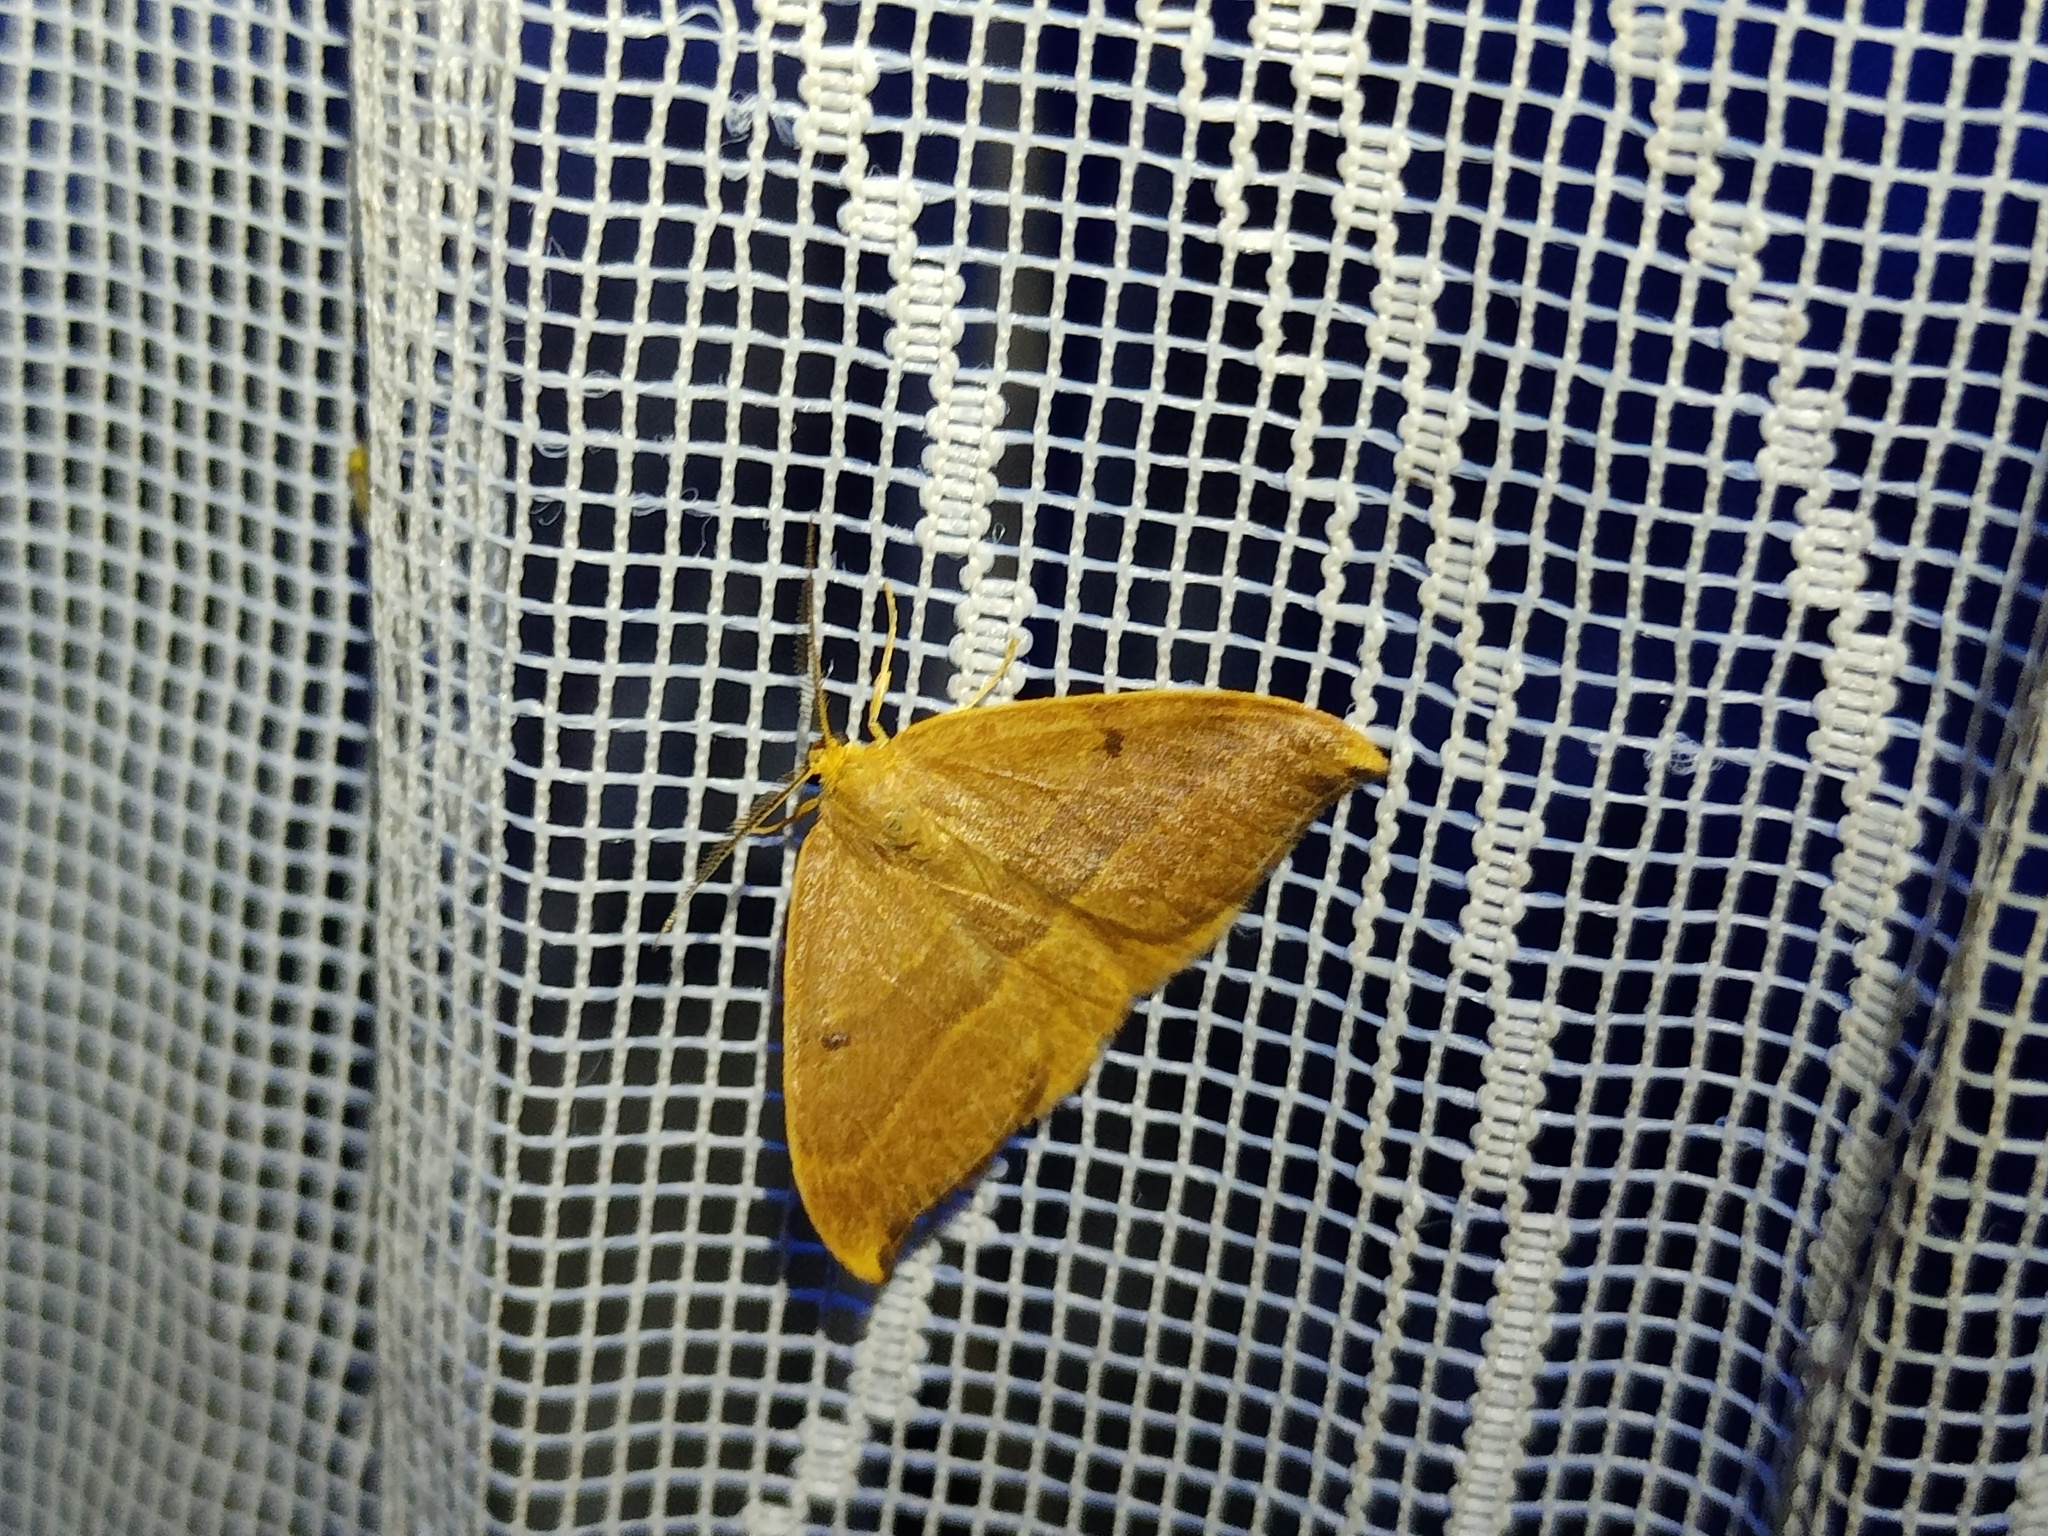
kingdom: Animalia
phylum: Arthropoda
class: Insecta
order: Lepidoptera
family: Drepanidae
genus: Watsonalla
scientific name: Watsonalla cultraria
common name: Barred hook-tip
